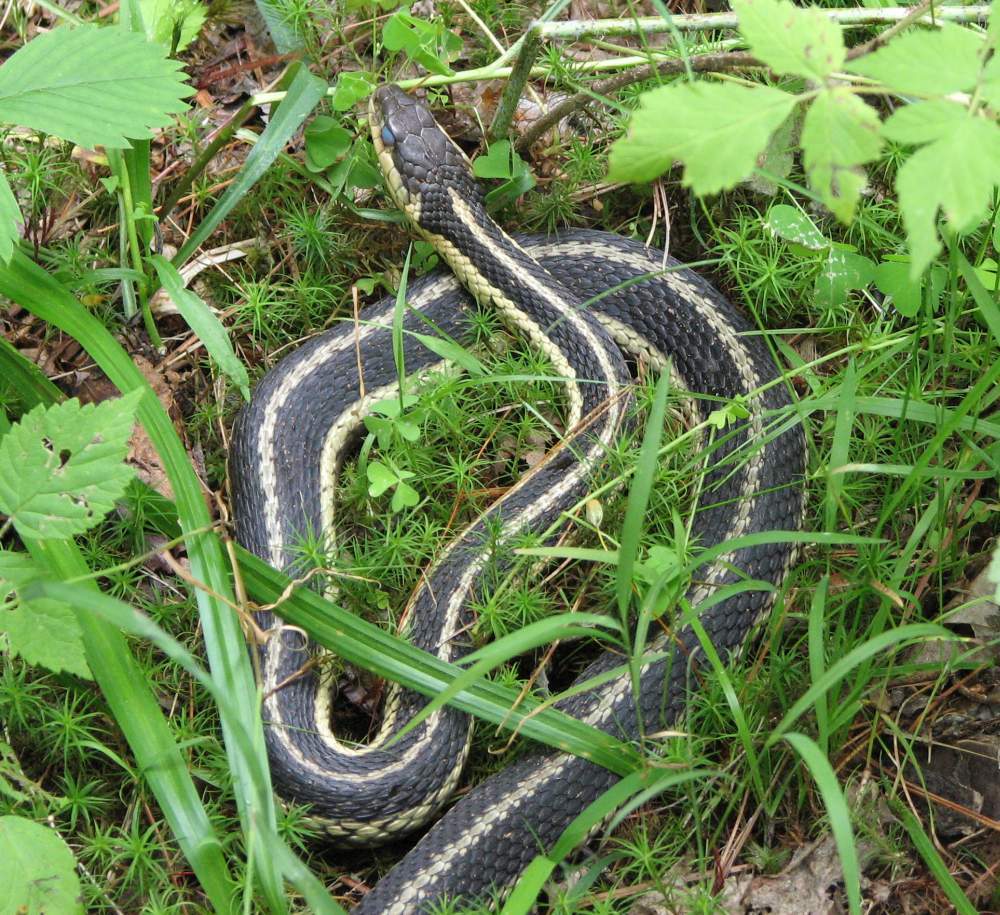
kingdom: Animalia
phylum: Chordata
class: Squamata
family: Colubridae
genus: Thamnophis
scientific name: Thamnophis sirtalis
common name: Common garter snake
